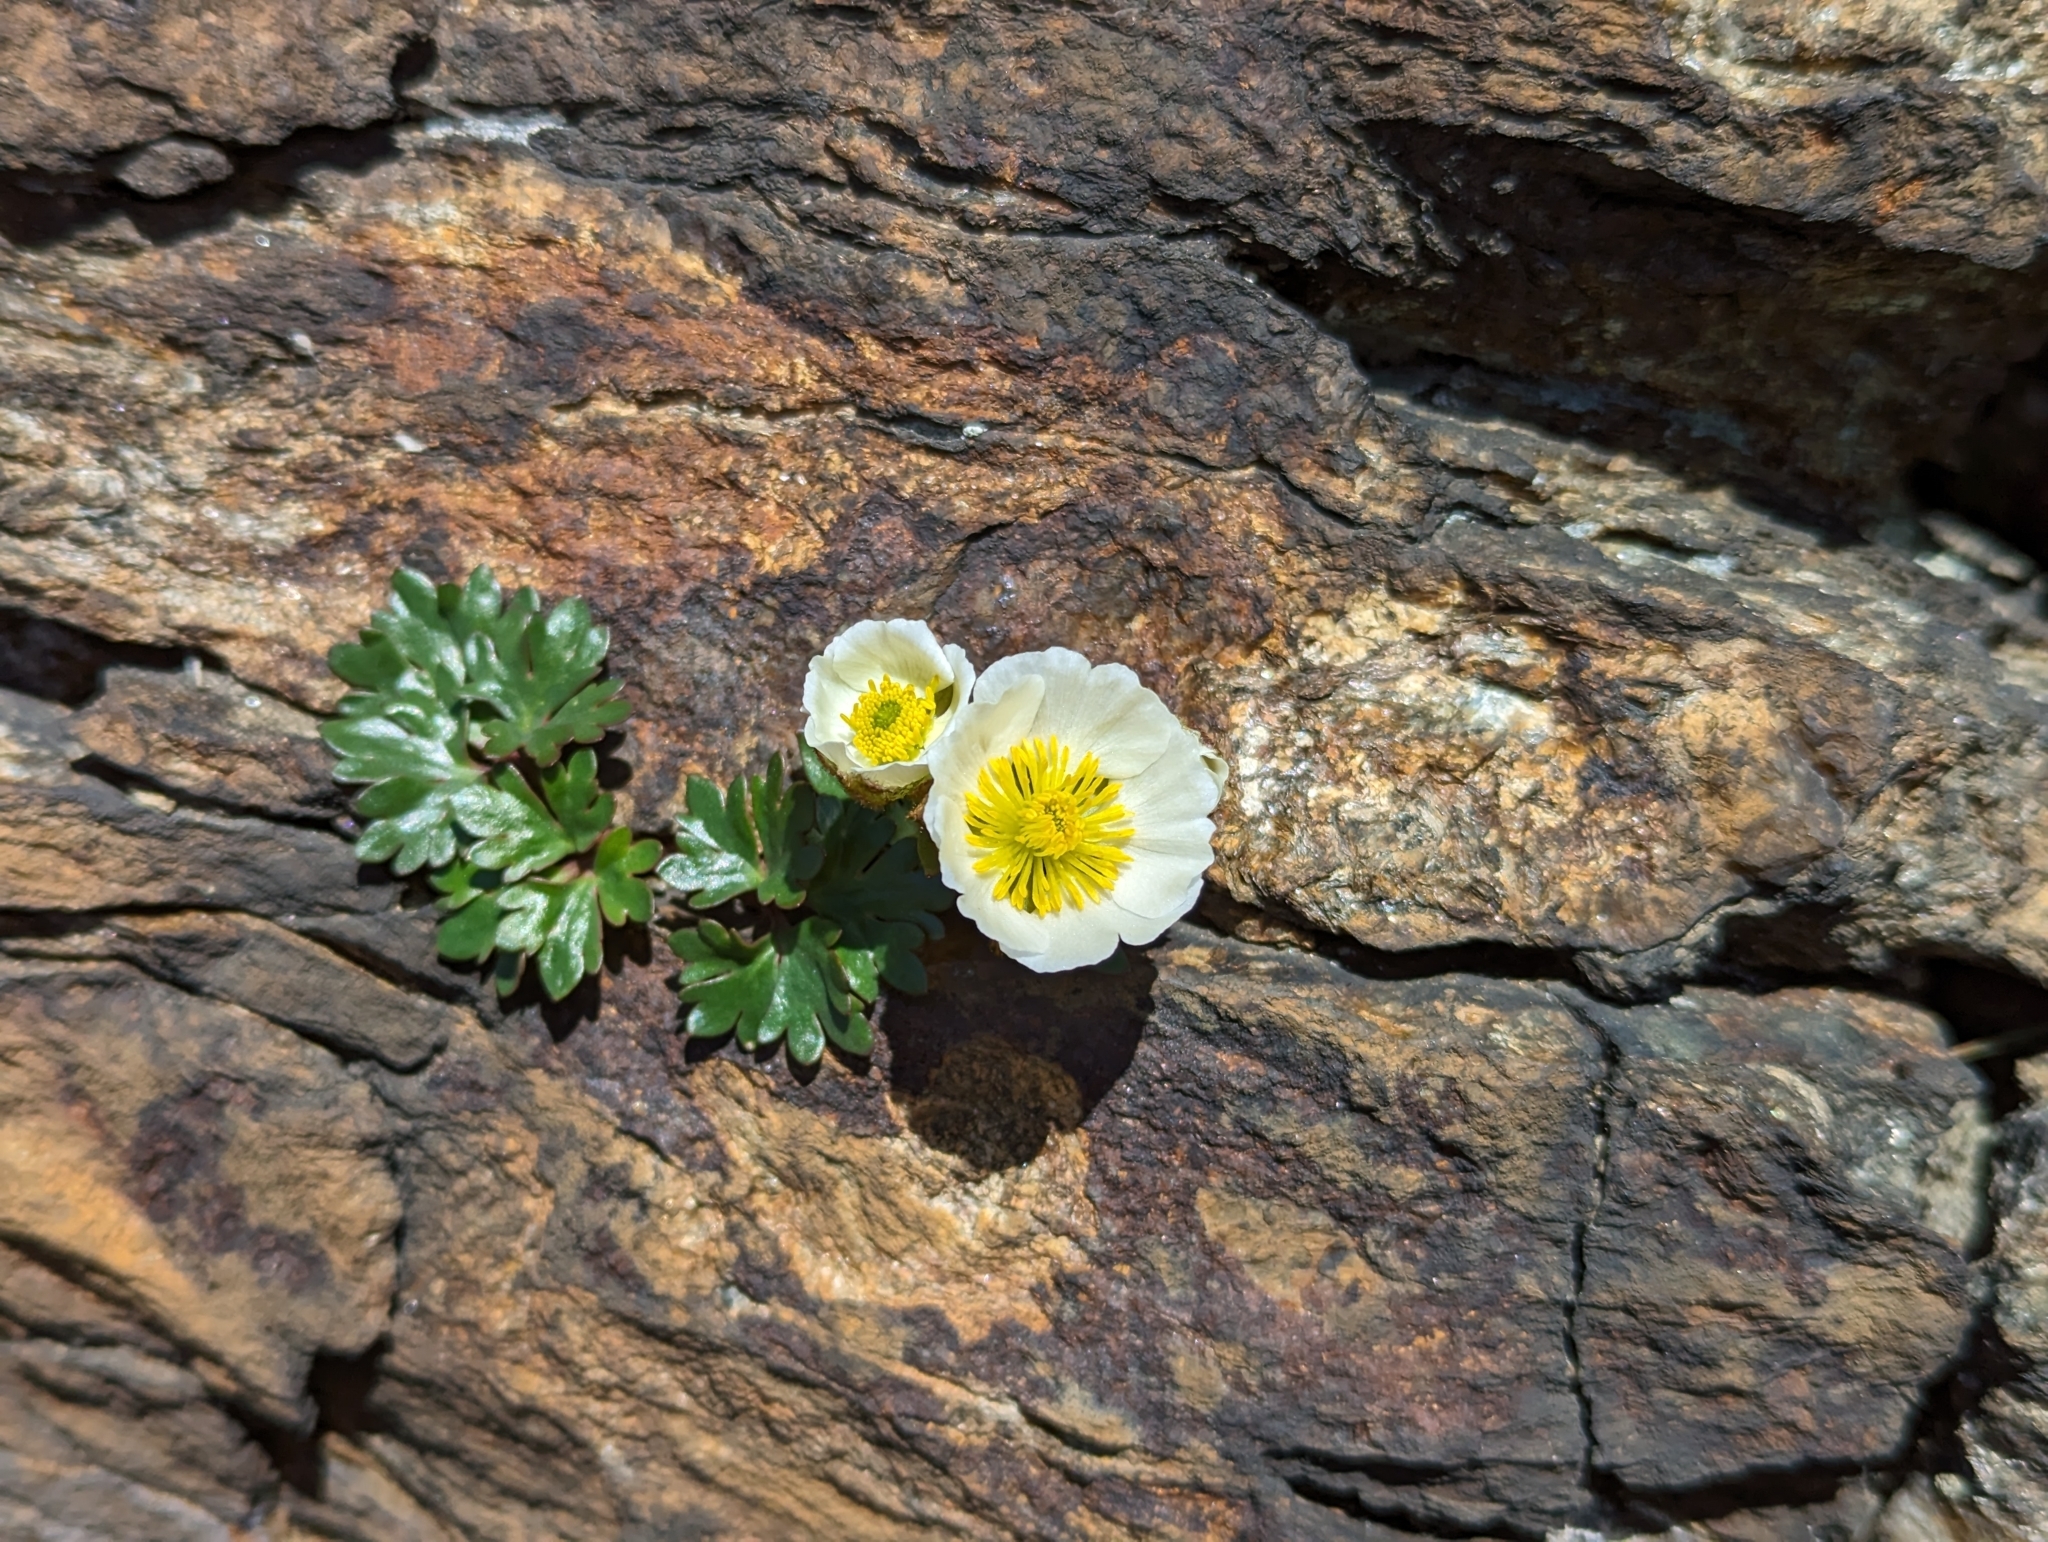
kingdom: Plantae
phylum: Tracheophyta
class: Magnoliopsida
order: Ranunculales
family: Ranunculaceae
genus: Ranunculus
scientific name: Ranunculus glacialis
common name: Glacier buttercup
